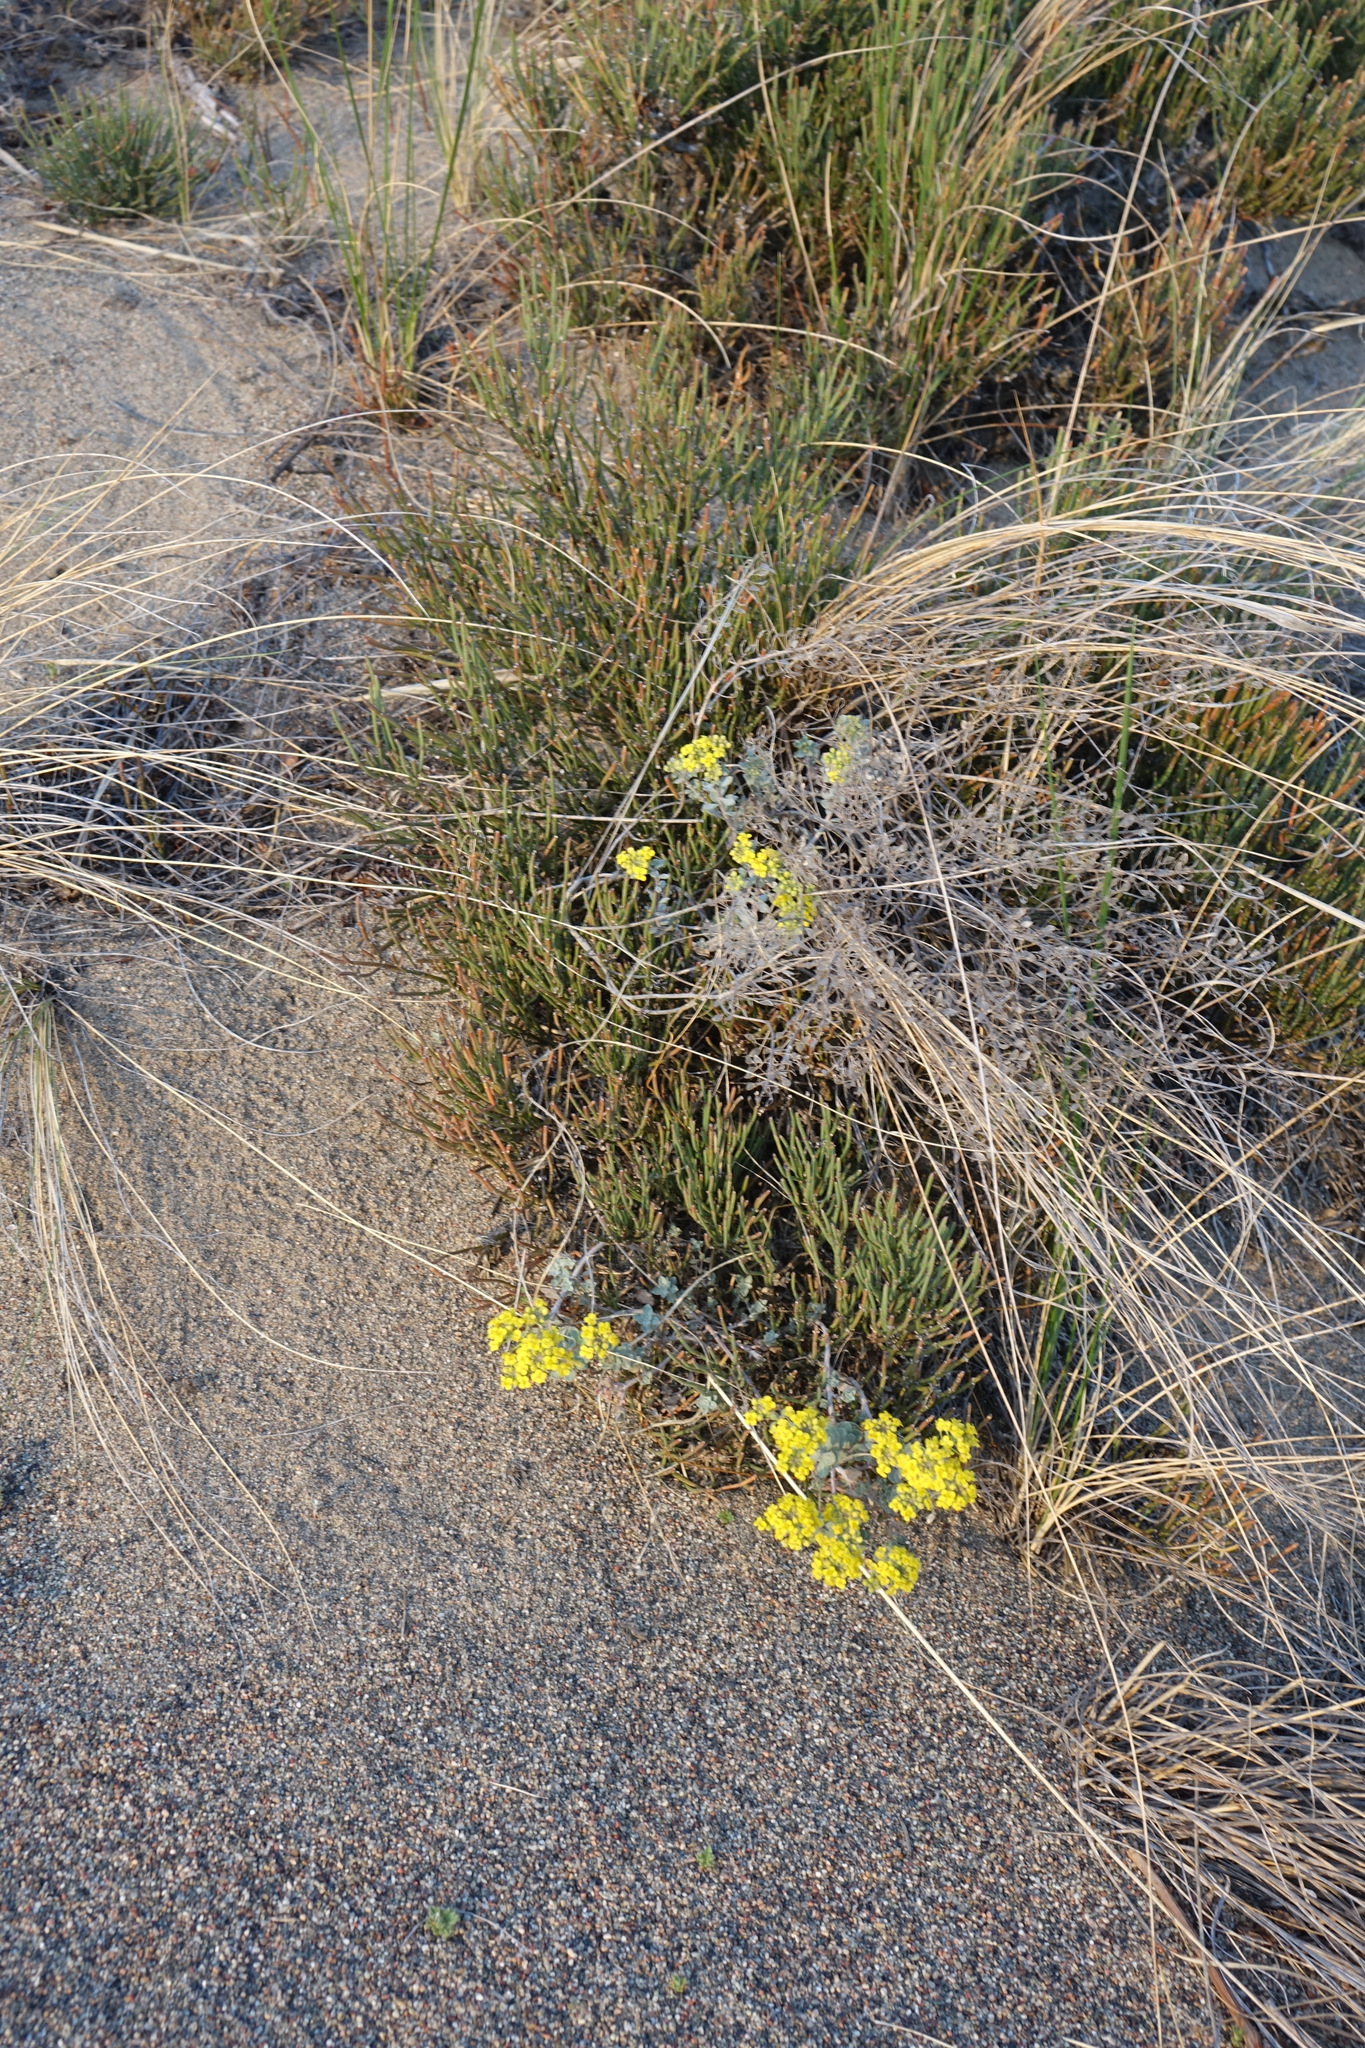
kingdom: Plantae
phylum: Tracheophyta
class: Magnoliopsida
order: Brassicales
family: Brassicaceae
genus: Odontarrhena
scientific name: Odontarrhena obovata
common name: American alyssum
